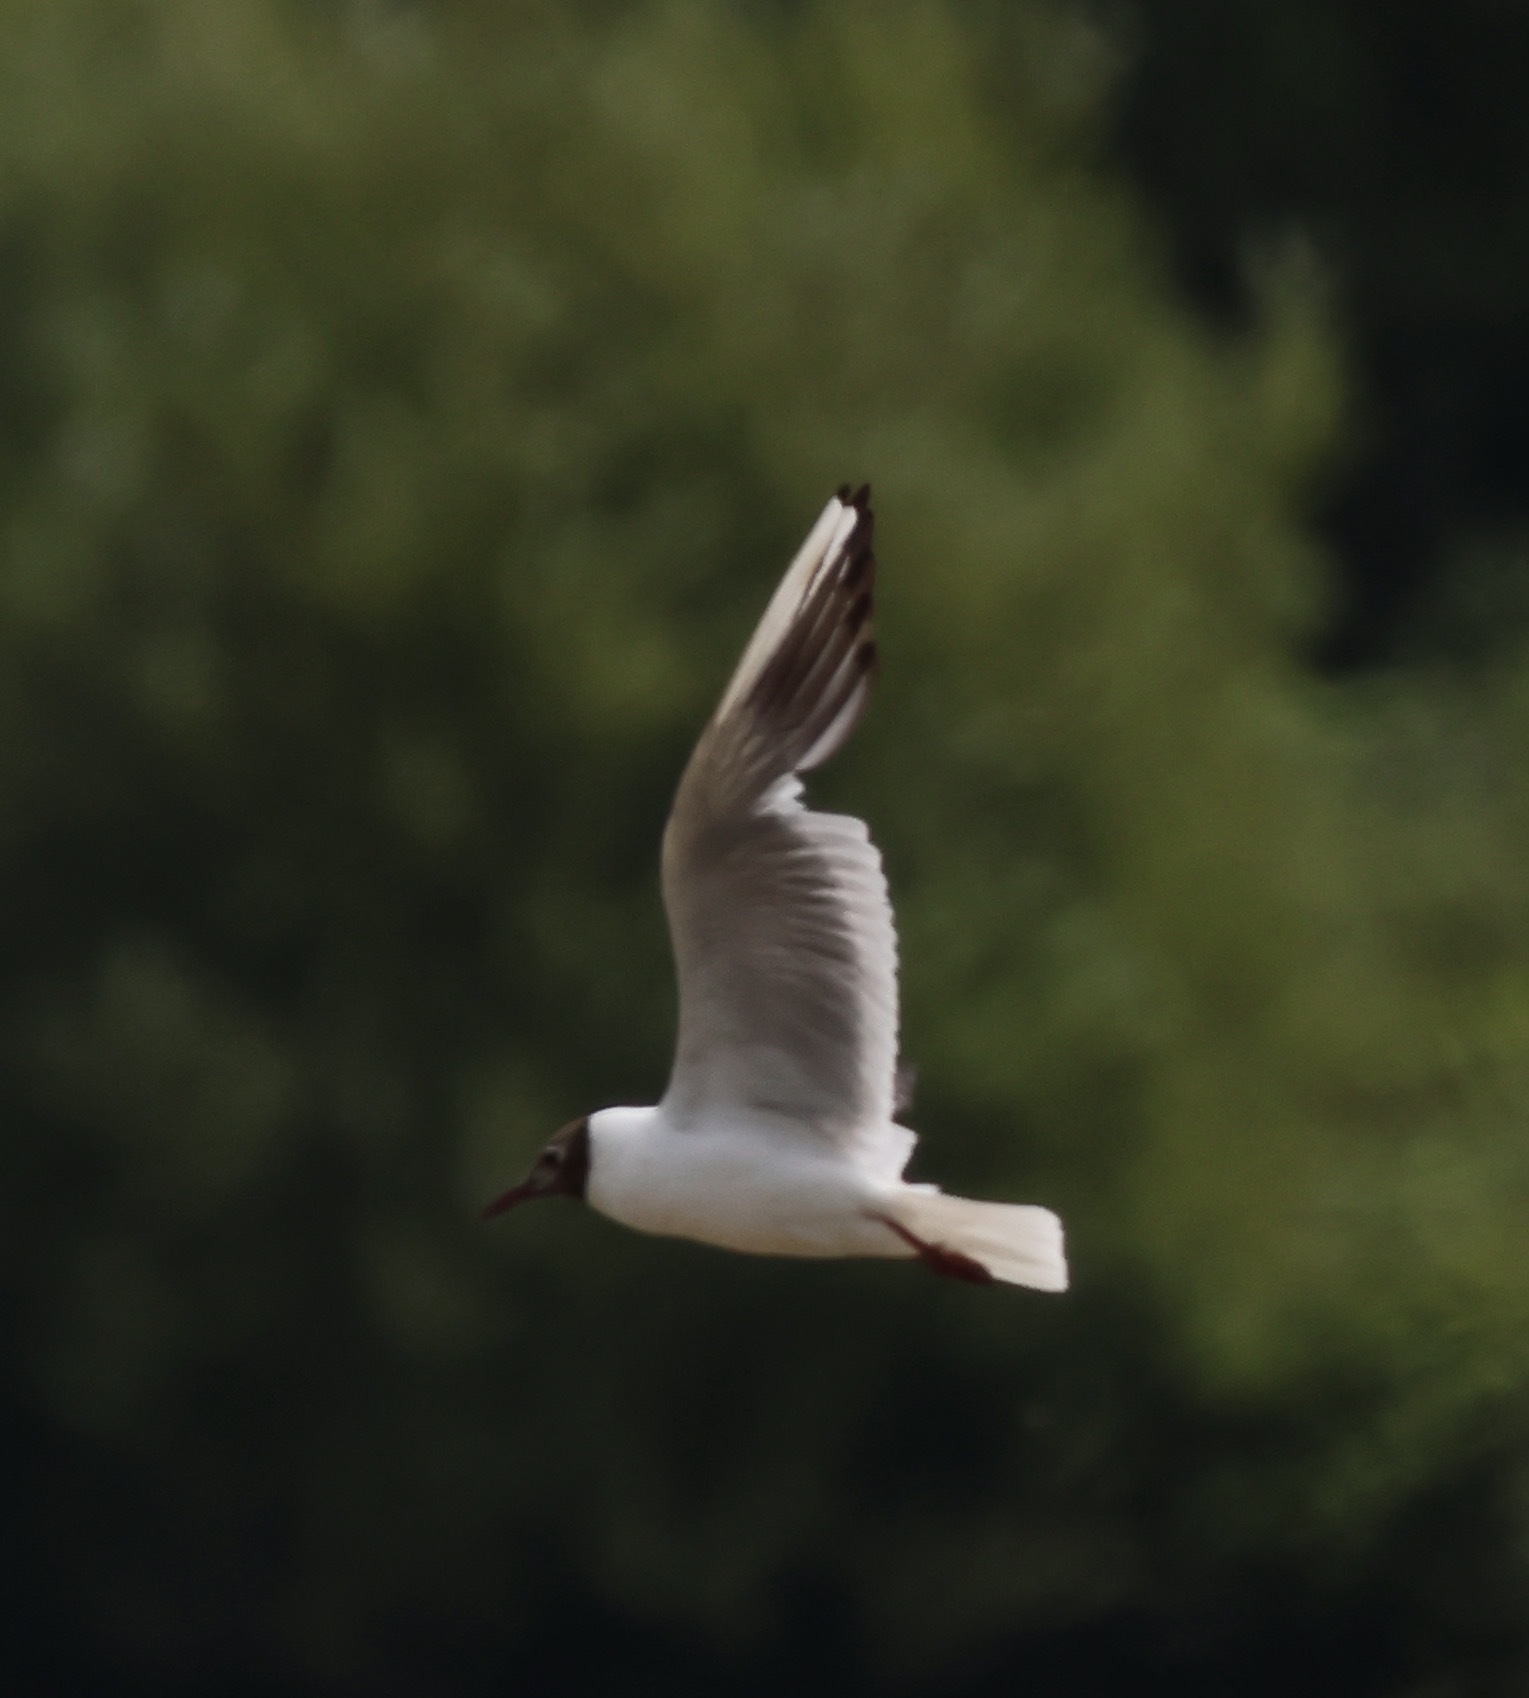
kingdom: Animalia
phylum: Chordata
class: Aves
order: Charadriiformes
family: Laridae
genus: Chroicocephalus
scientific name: Chroicocephalus ridibundus
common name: Black-headed gull
